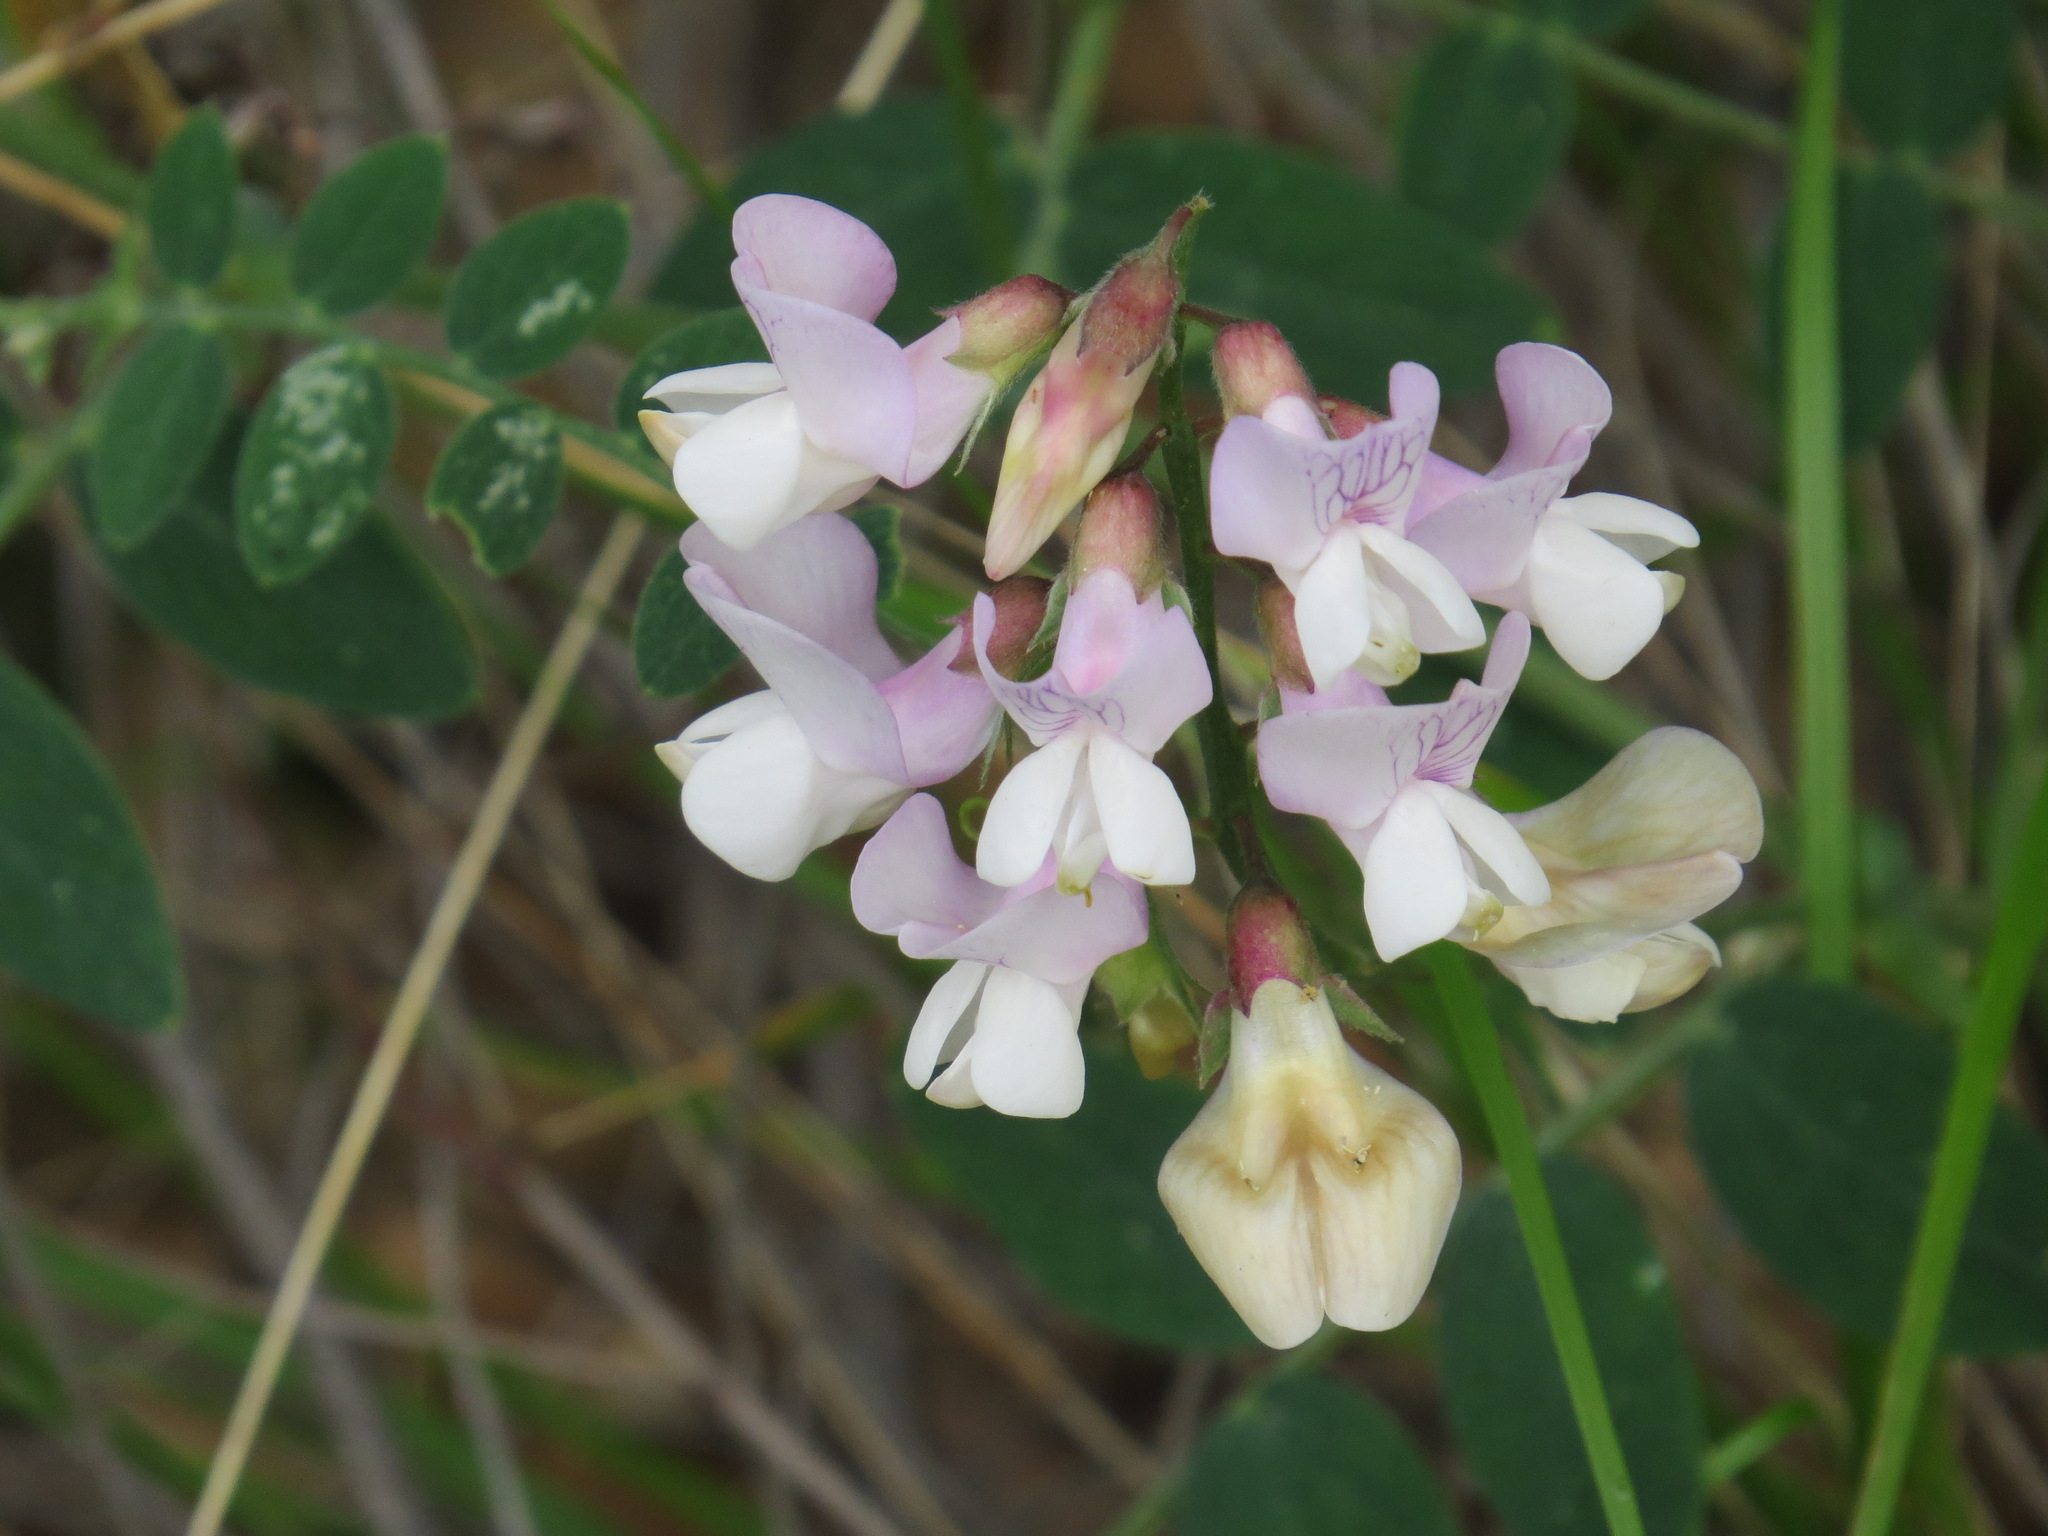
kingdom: Plantae
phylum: Tracheophyta
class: Magnoliopsida
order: Fabales
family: Fabaceae
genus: Lathyrus
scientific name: Lathyrus vestitus
